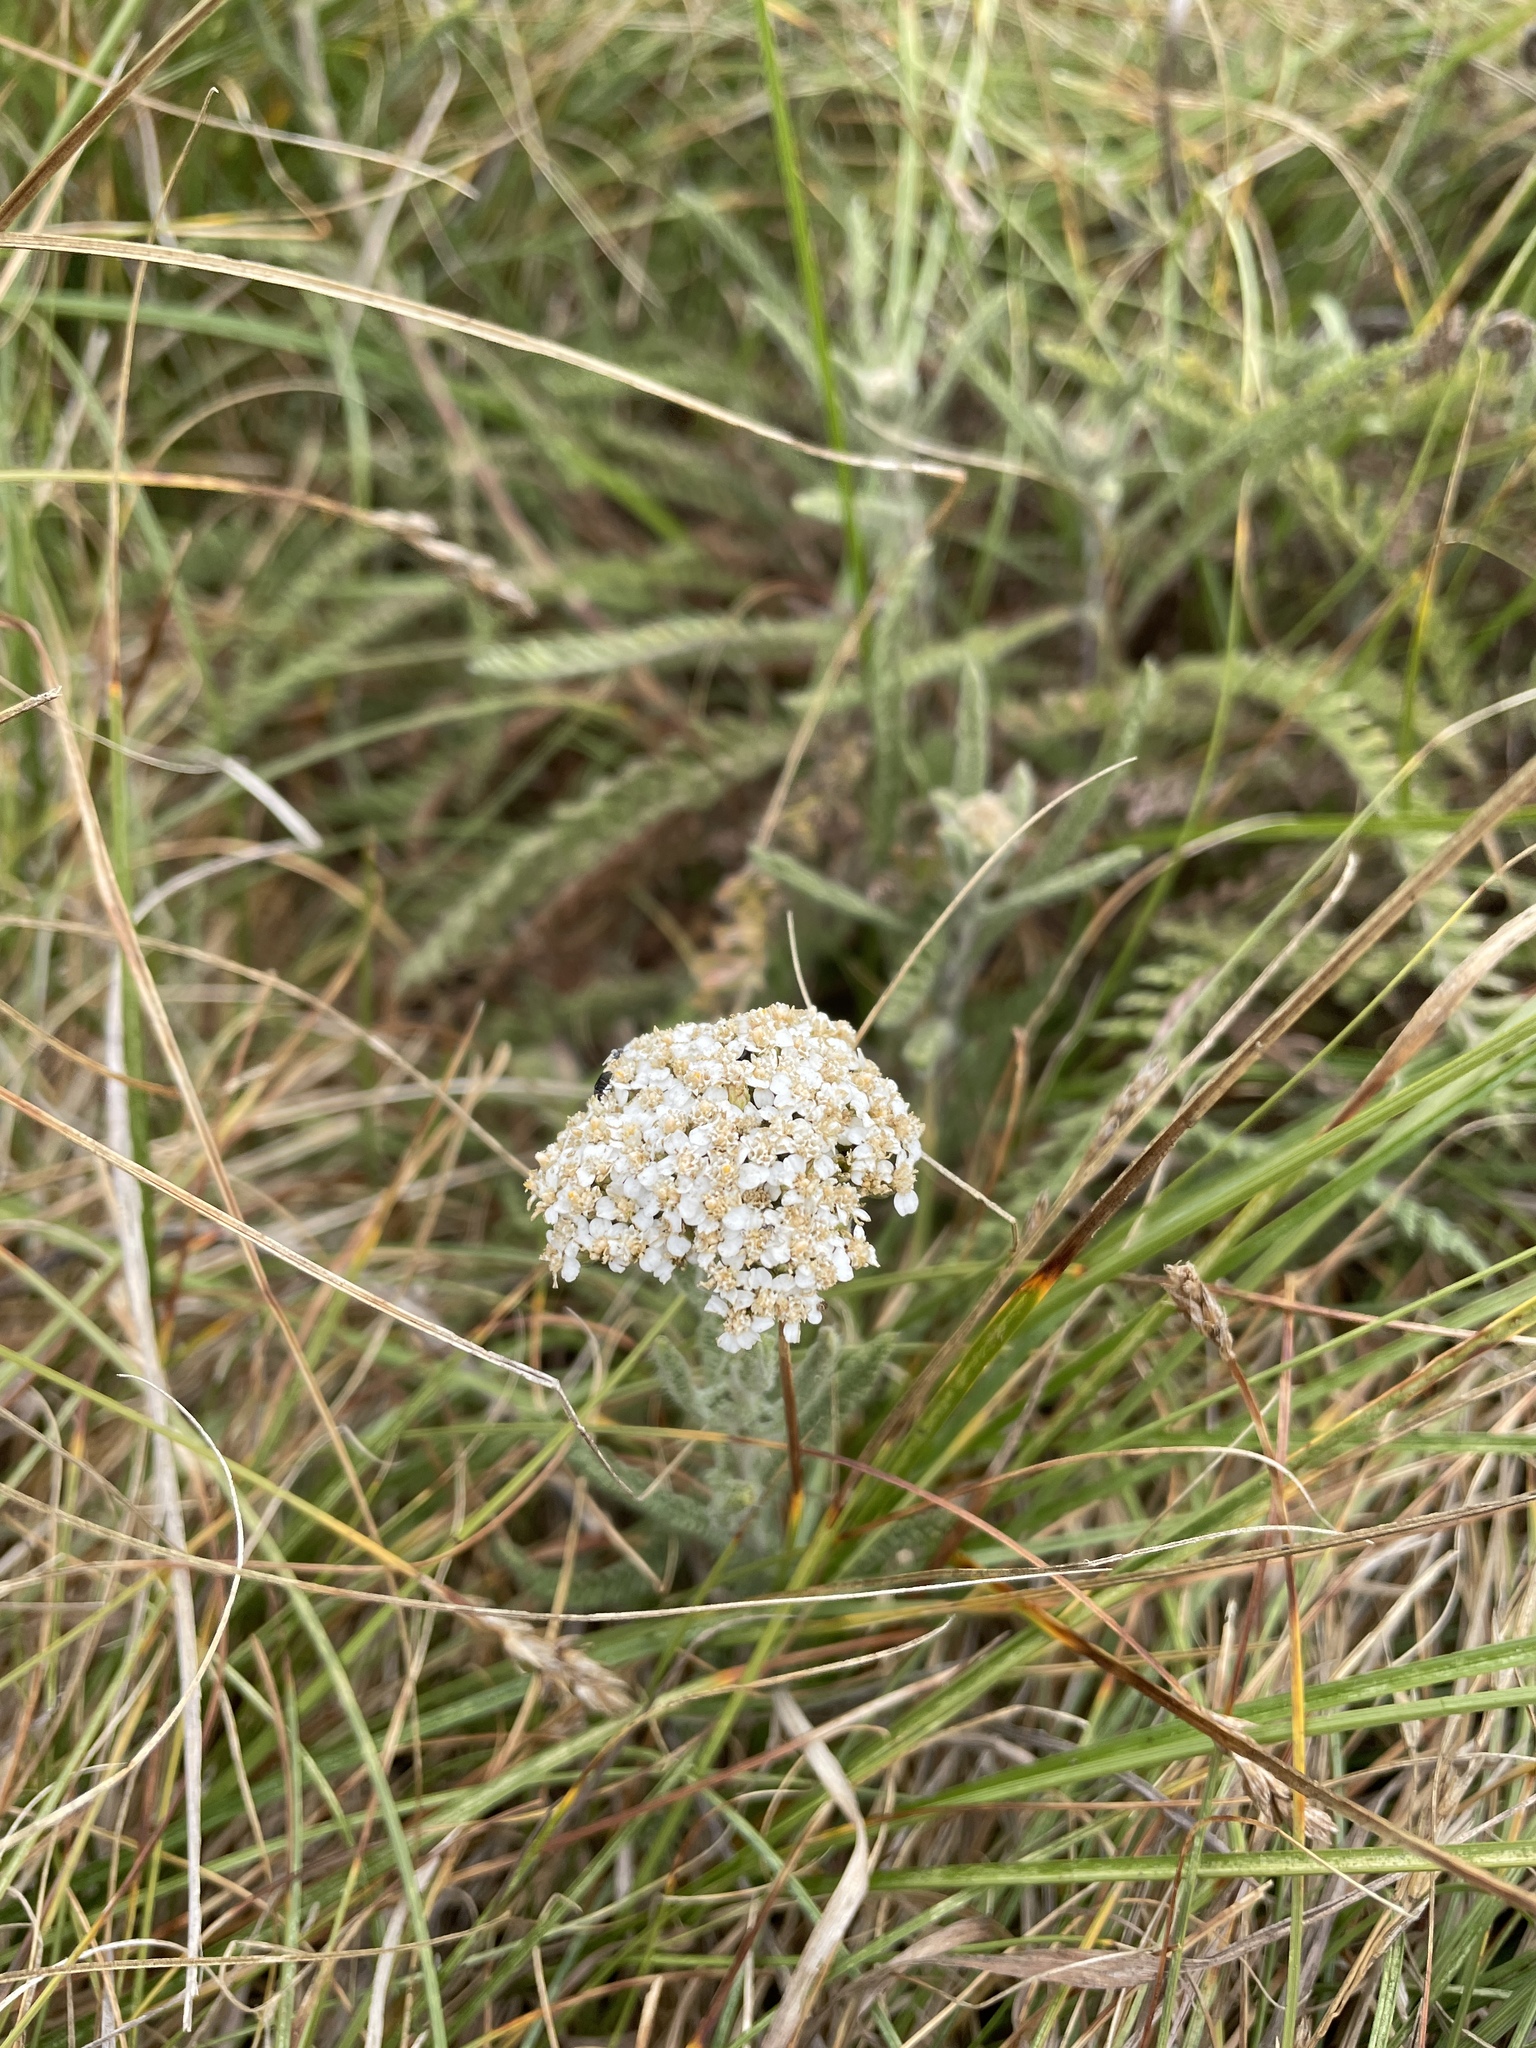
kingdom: Plantae
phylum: Tracheophyta
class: Magnoliopsida
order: Asterales
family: Asteraceae
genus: Achillea
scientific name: Achillea millefolium
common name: Yarrow
